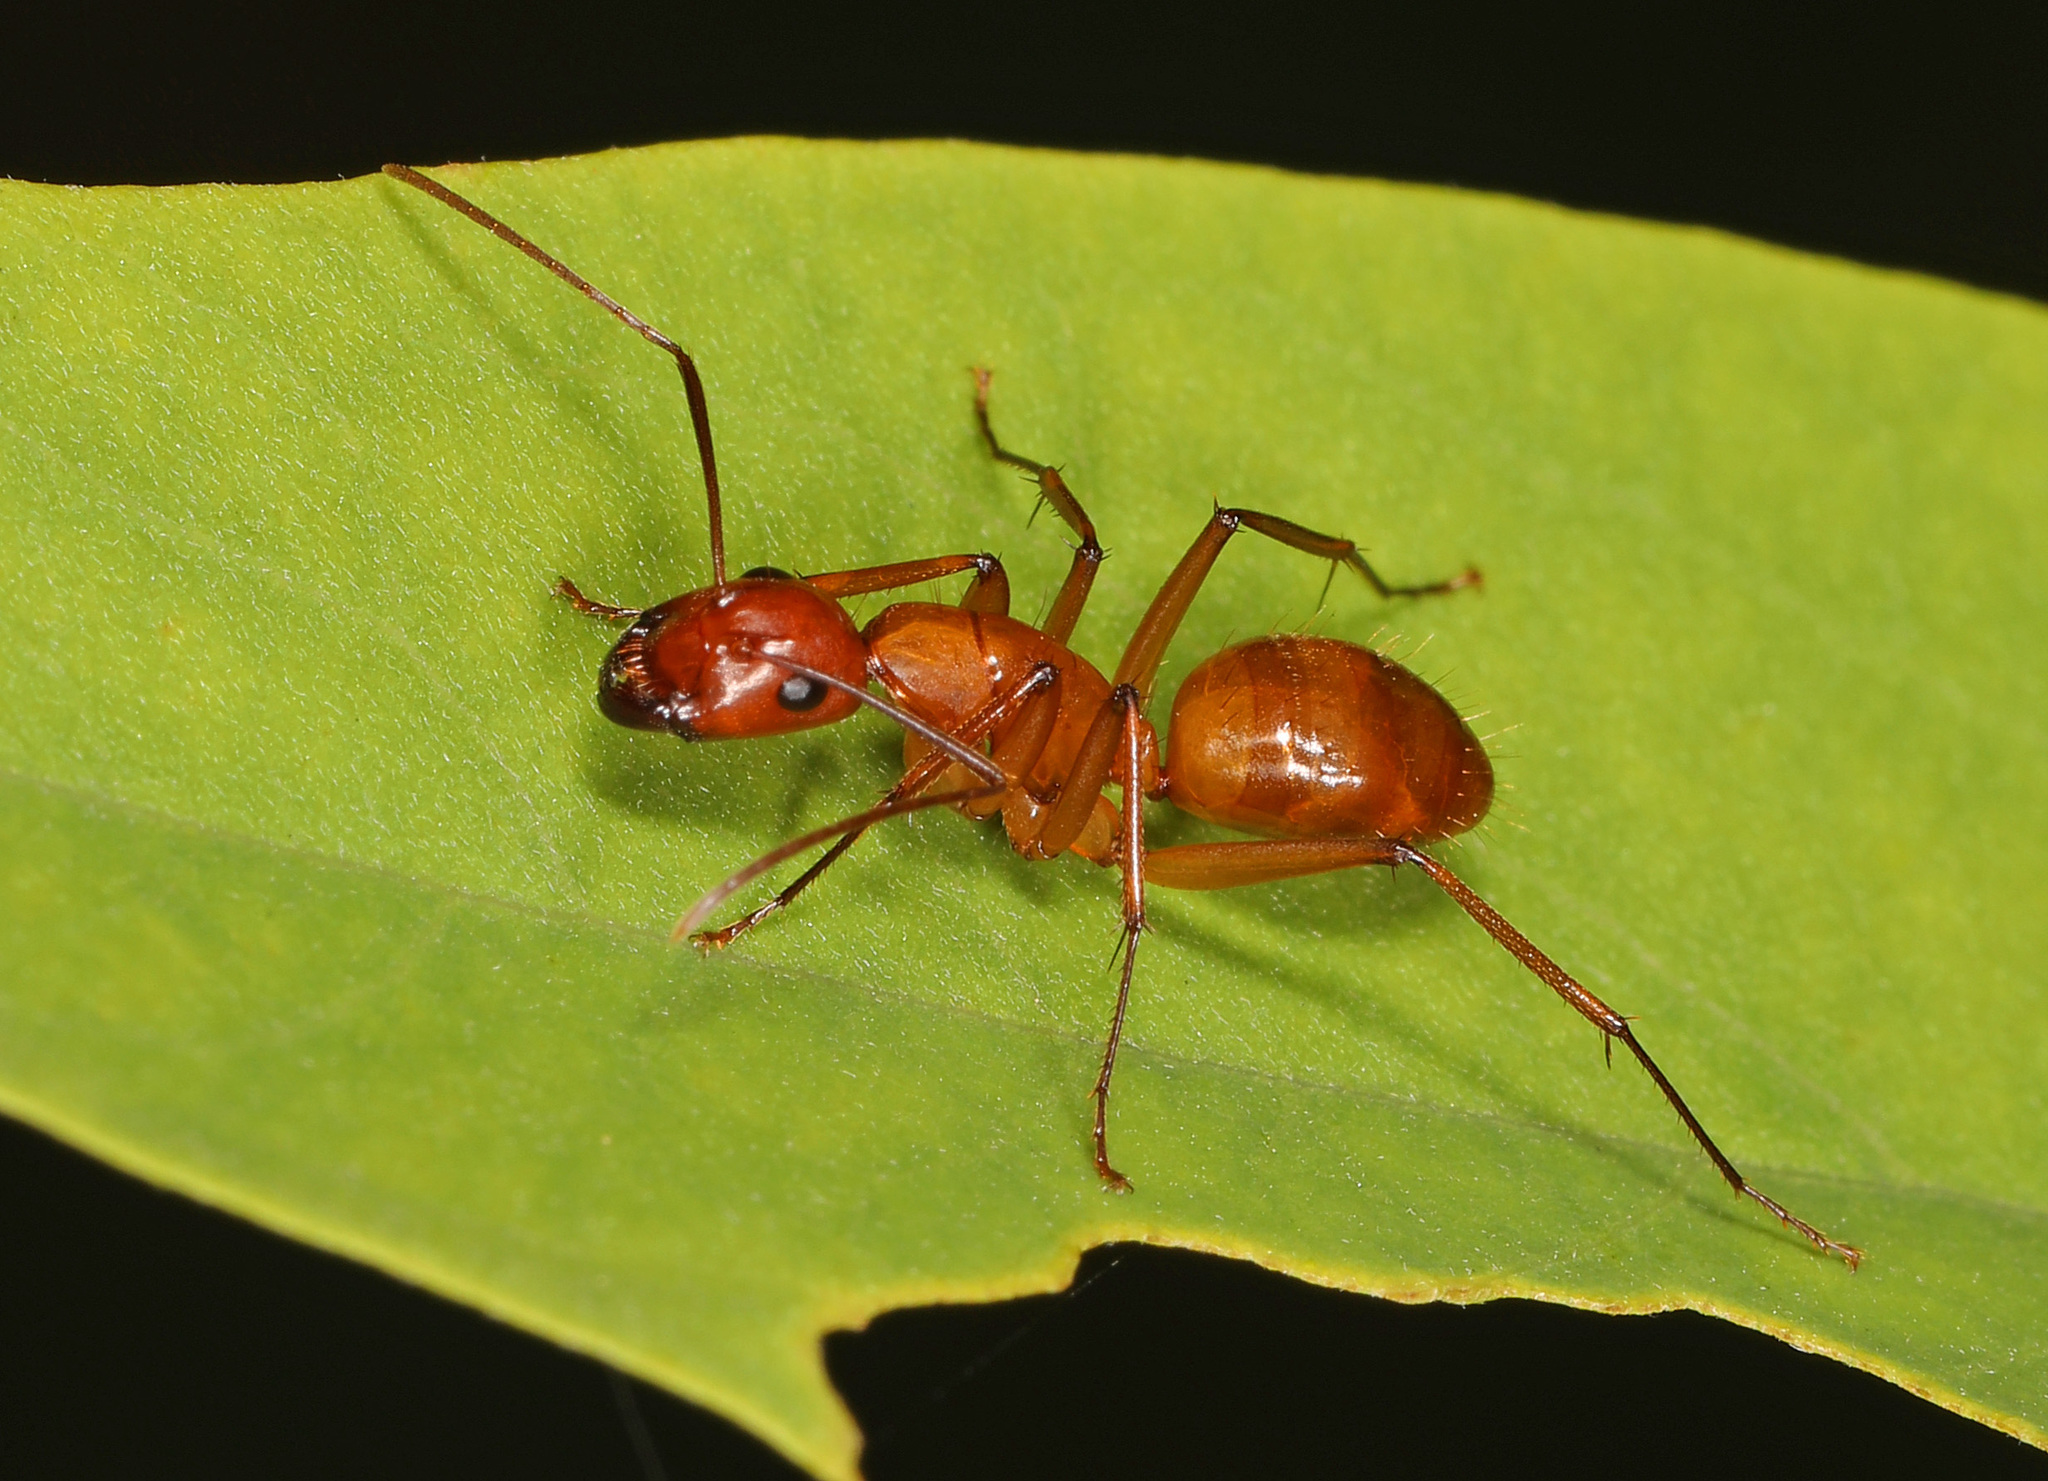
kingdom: Animalia
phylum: Arthropoda
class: Insecta
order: Hymenoptera
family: Formicidae
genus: Camponotus
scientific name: Camponotus castaneus
